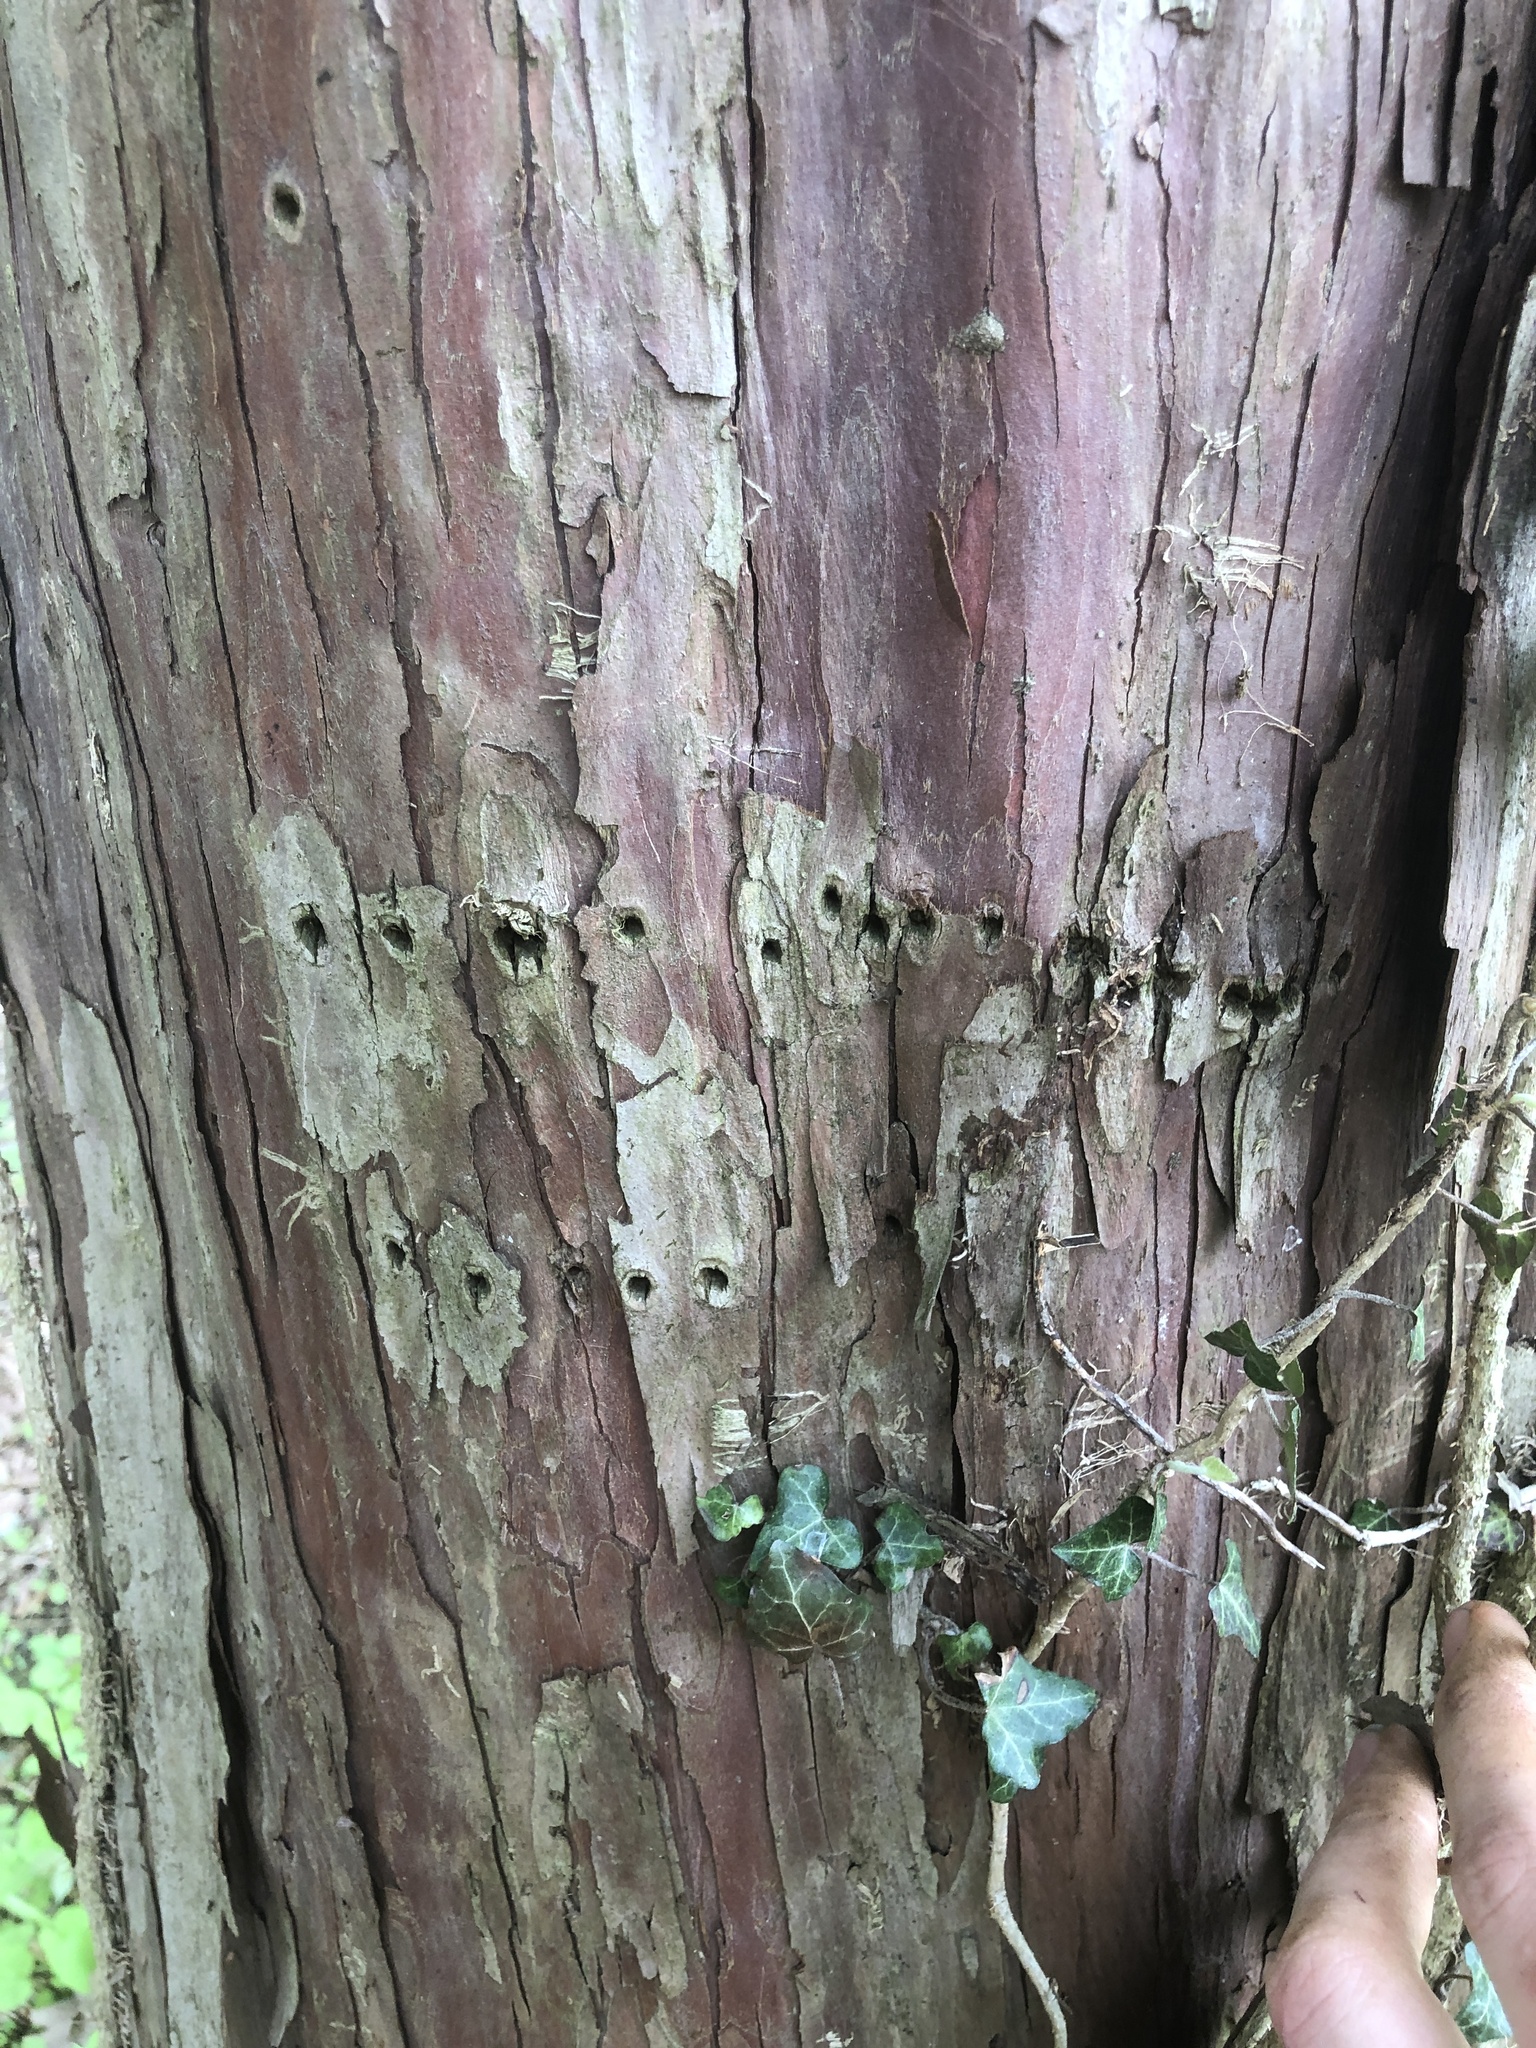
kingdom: Animalia
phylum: Chordata
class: Aves
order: Piciformes
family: Picidae
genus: Sphyrapicus
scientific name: Sphyrapicus varius
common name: Yellow-bellied sapsucker
